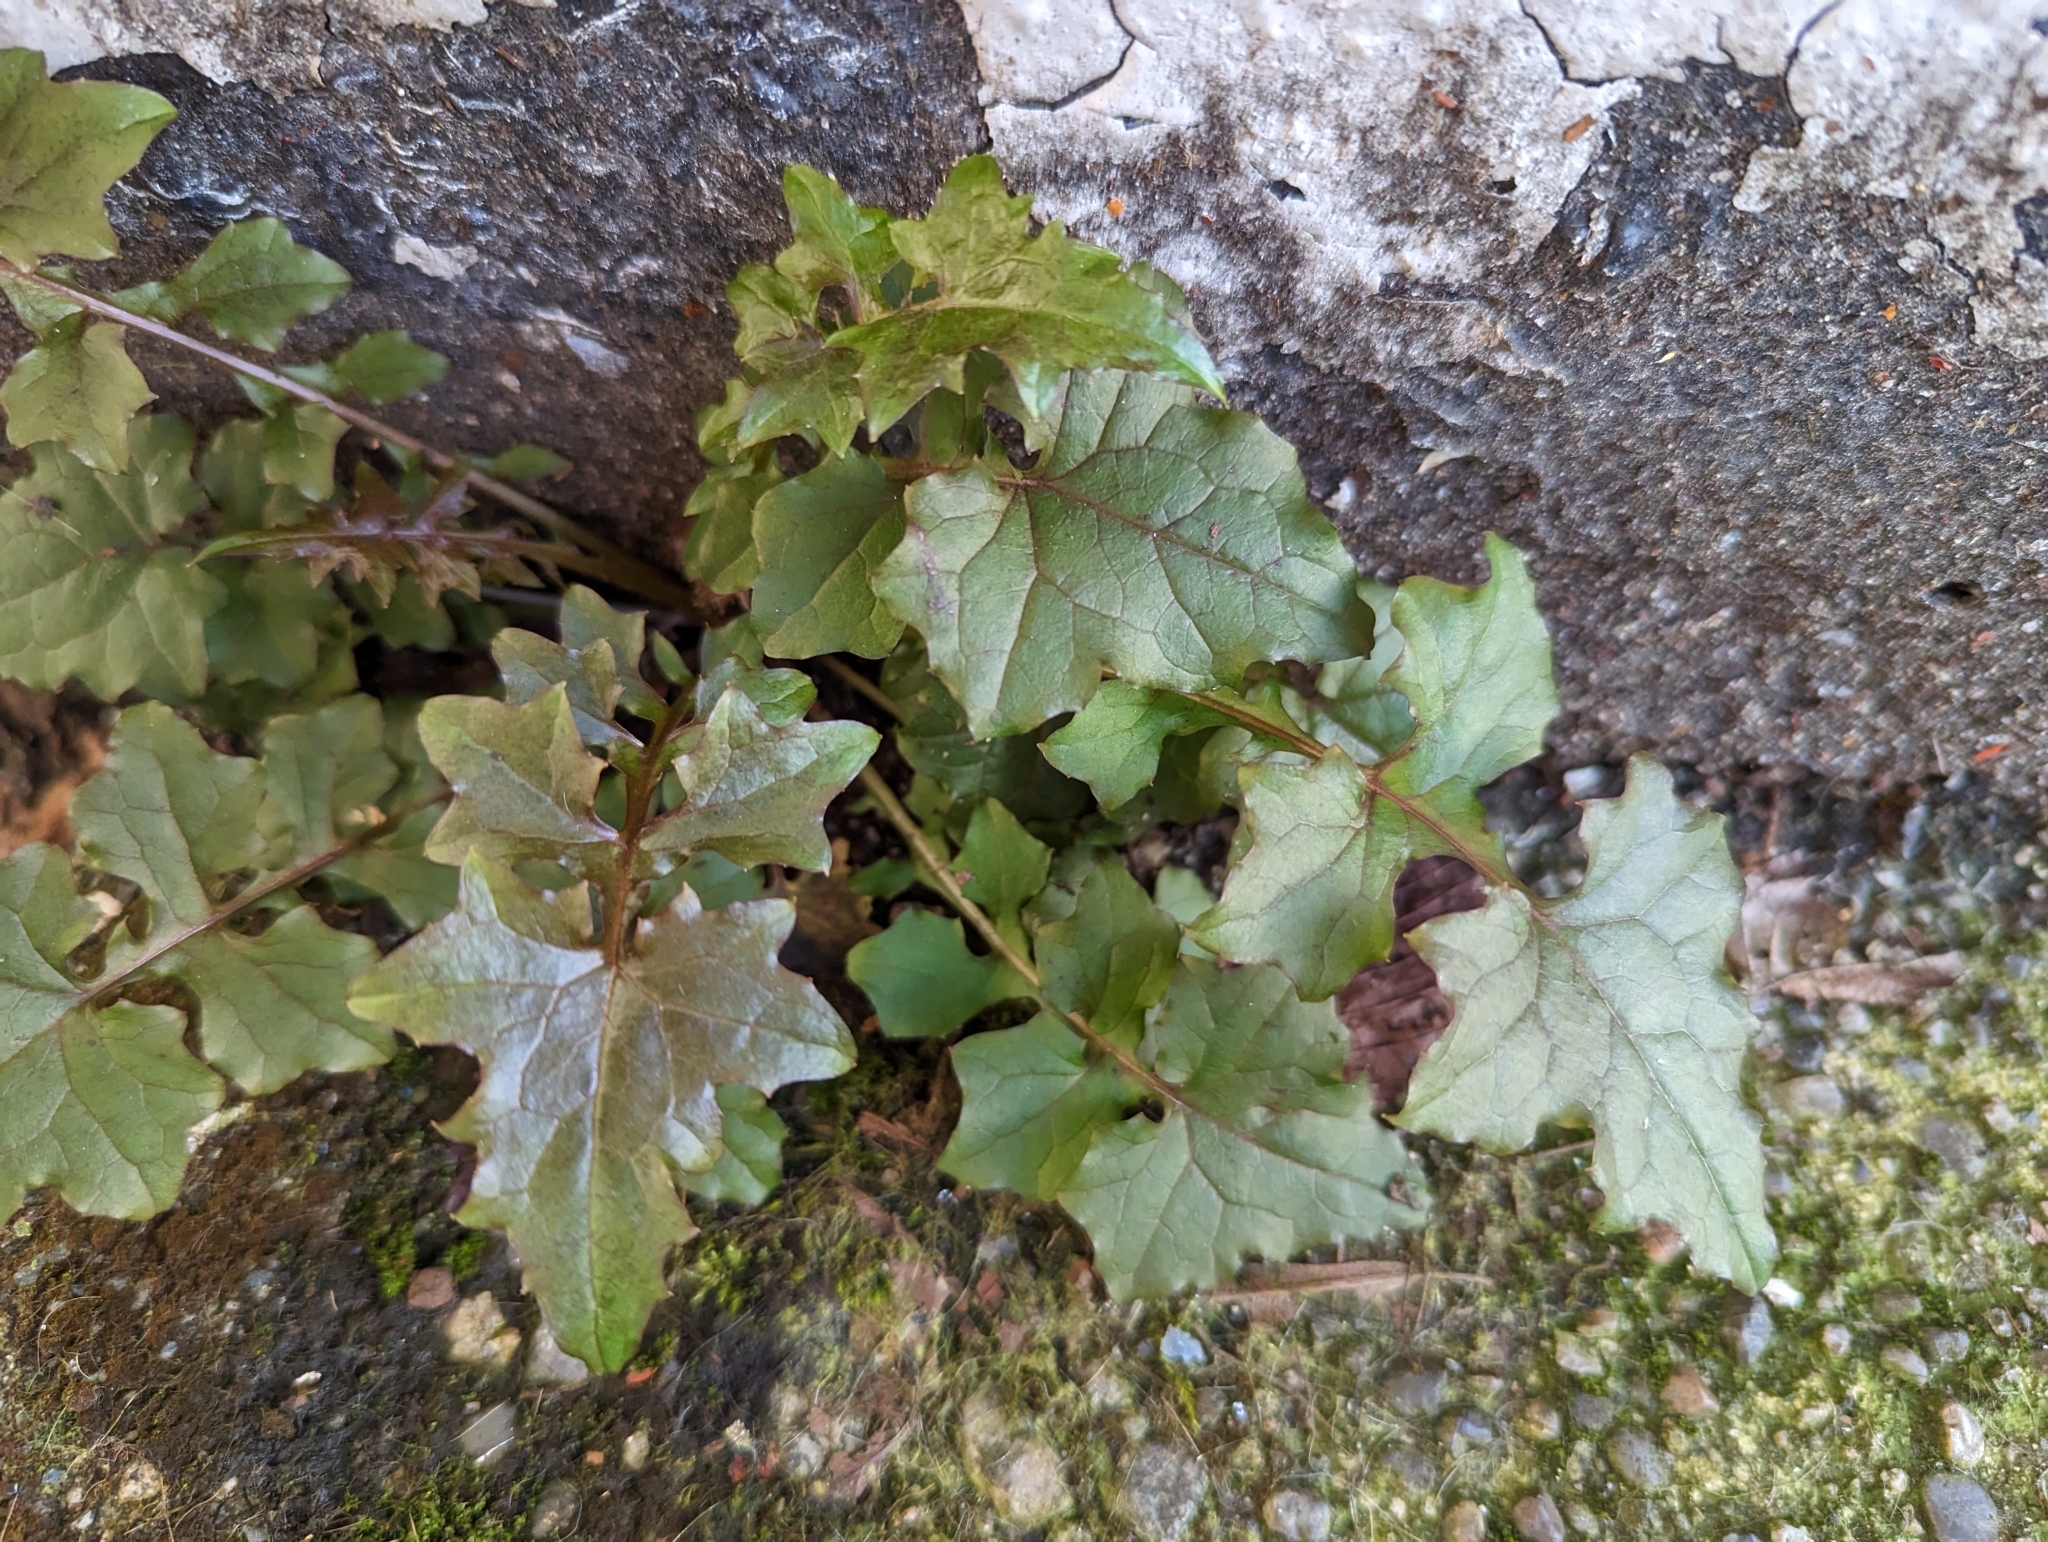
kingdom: Plantae
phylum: Tracheophyta
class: Magnoliopsida
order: Asterales
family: Asteraceae
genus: Mycelis
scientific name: Mycelis muralis
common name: Wall lettuce
